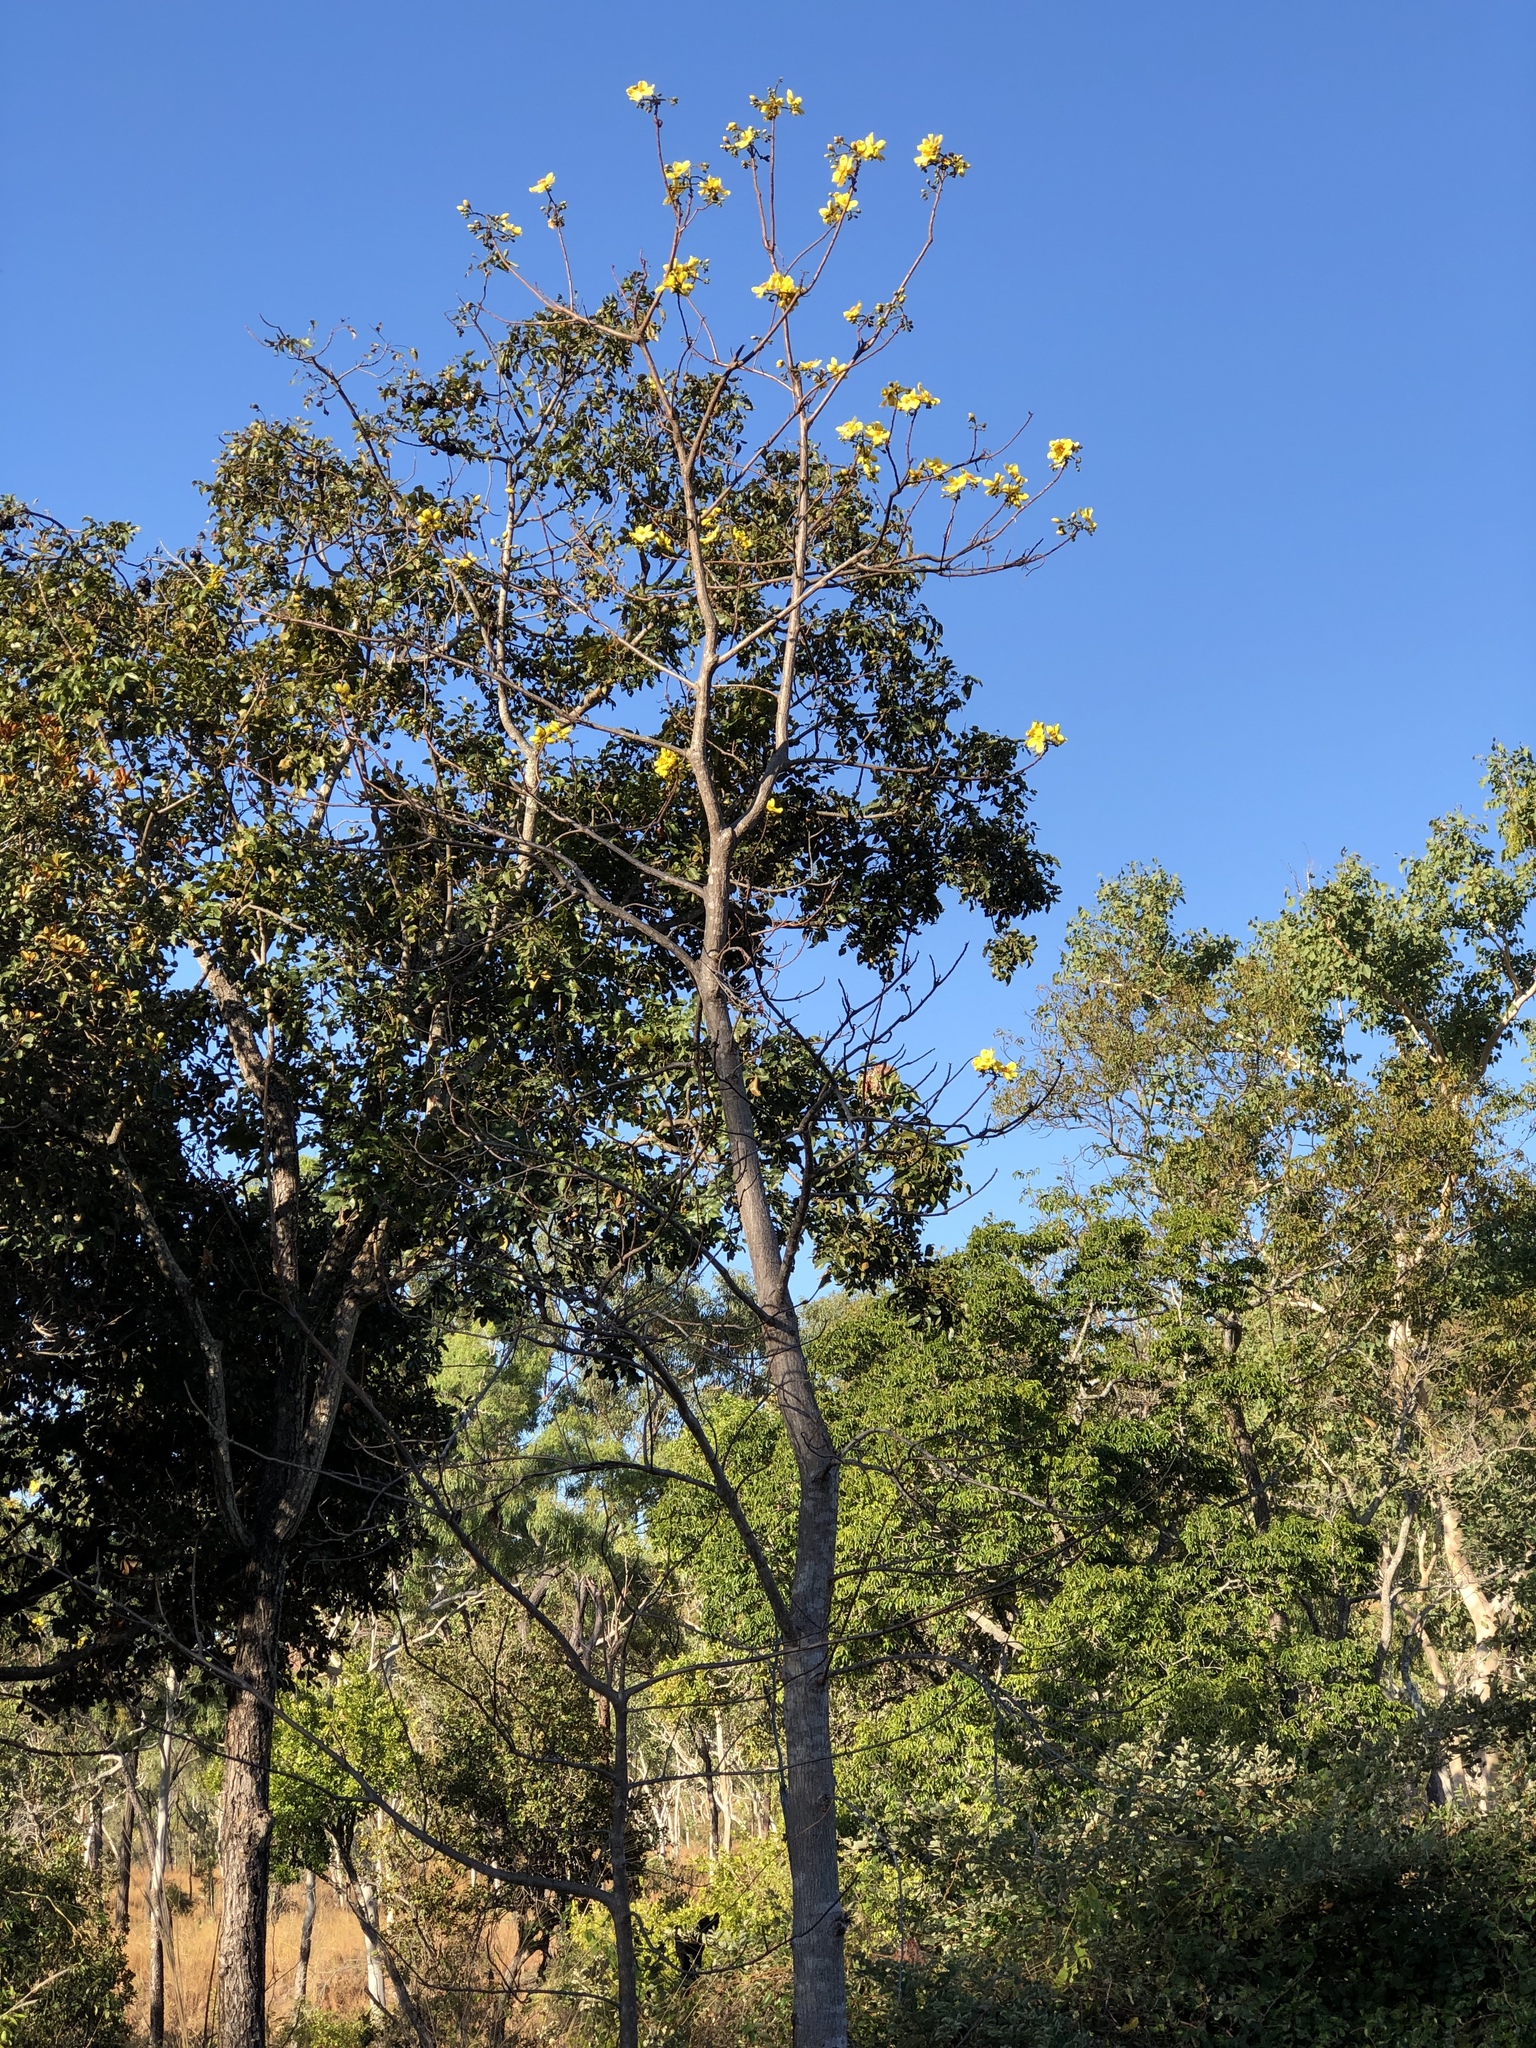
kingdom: Plantae
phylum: Tracheophyta
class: Magnoliopsida
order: Malvales
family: Cochlospermaceae
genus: Cochlospermum
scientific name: Cochlospermum gillivraei
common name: Cottontree
